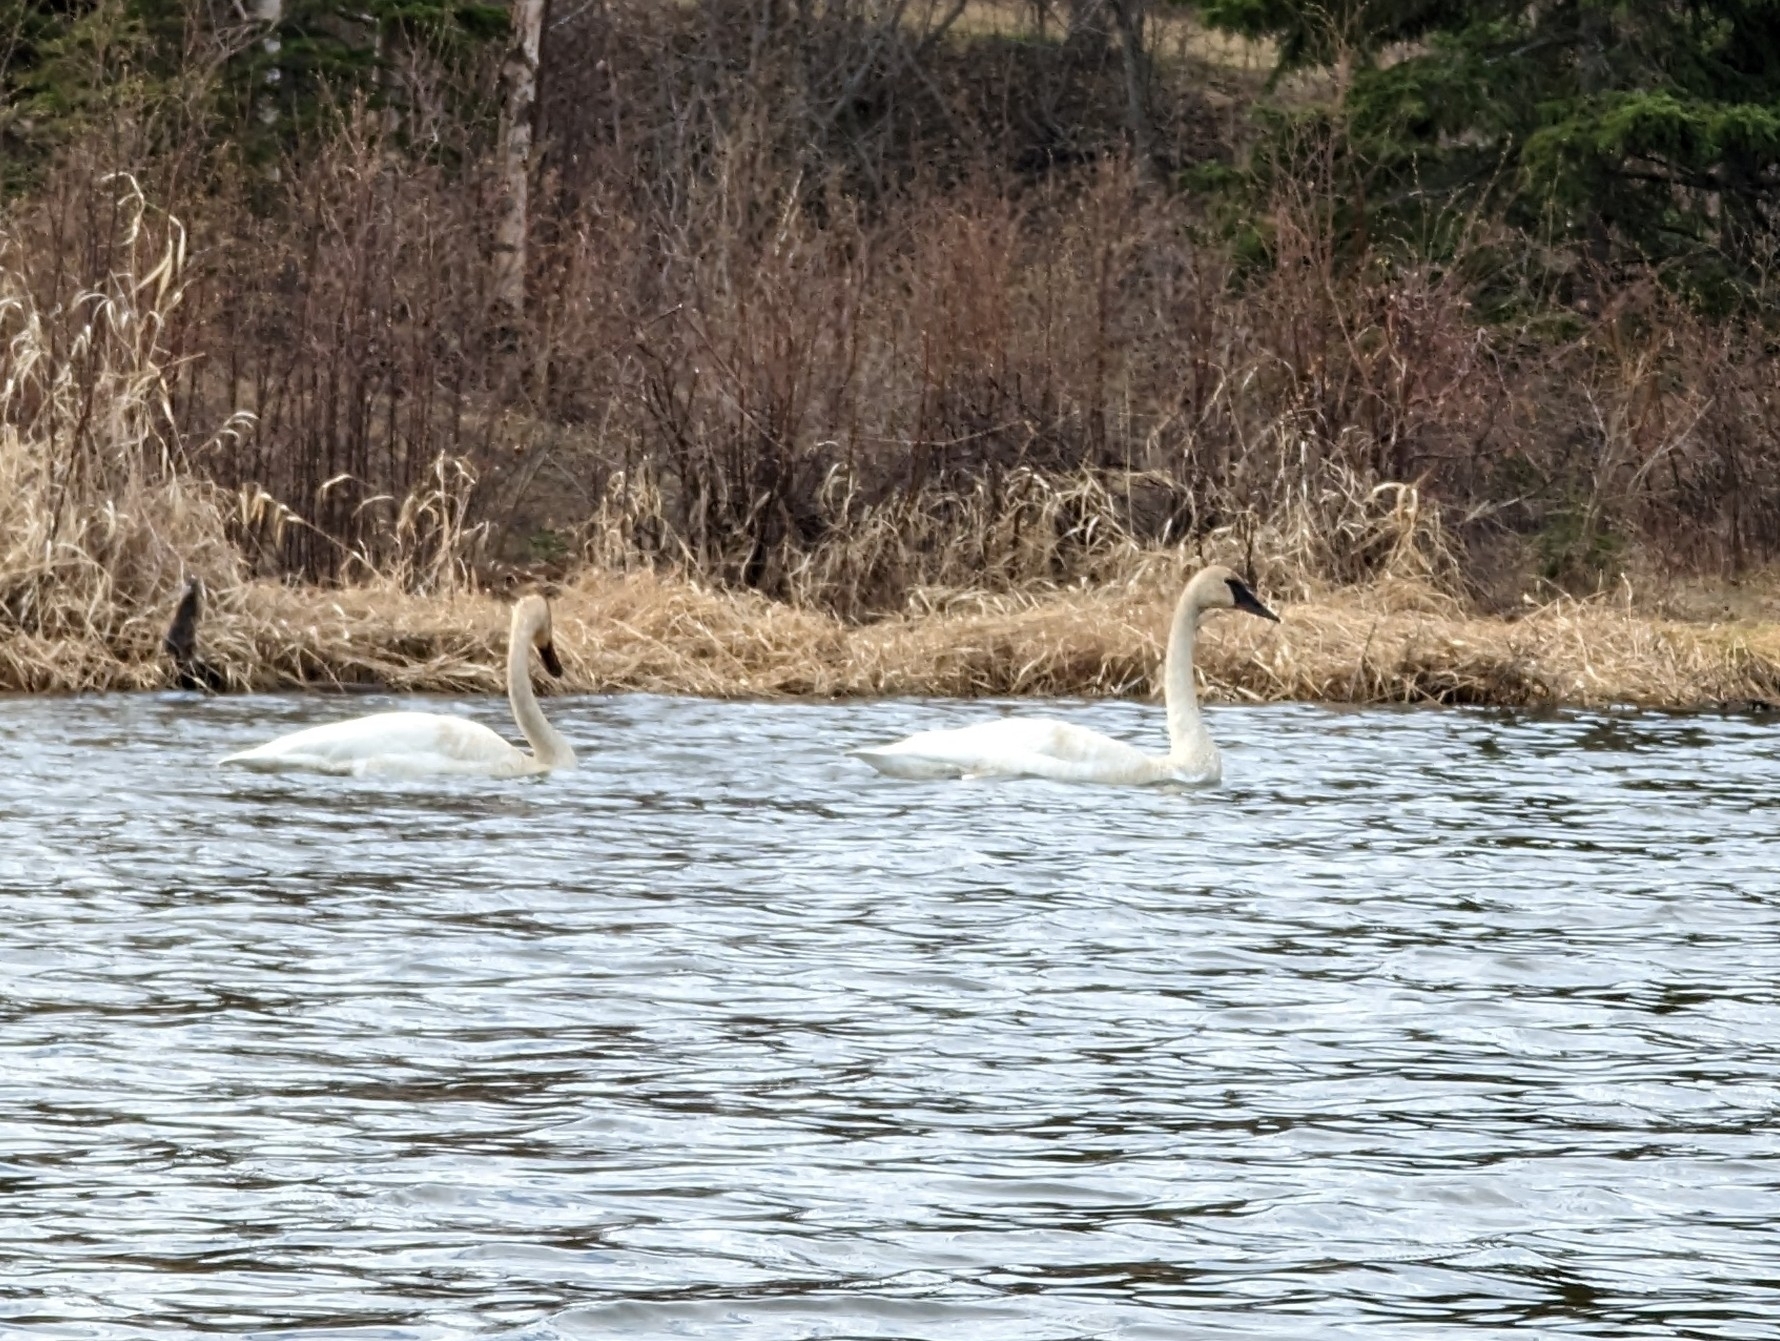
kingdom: Animalia
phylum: Chordata
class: Aves
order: Anseriformes
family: Anatidae
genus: Cygnus
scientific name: Cygnus buccinator
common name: Trumpeter swan
